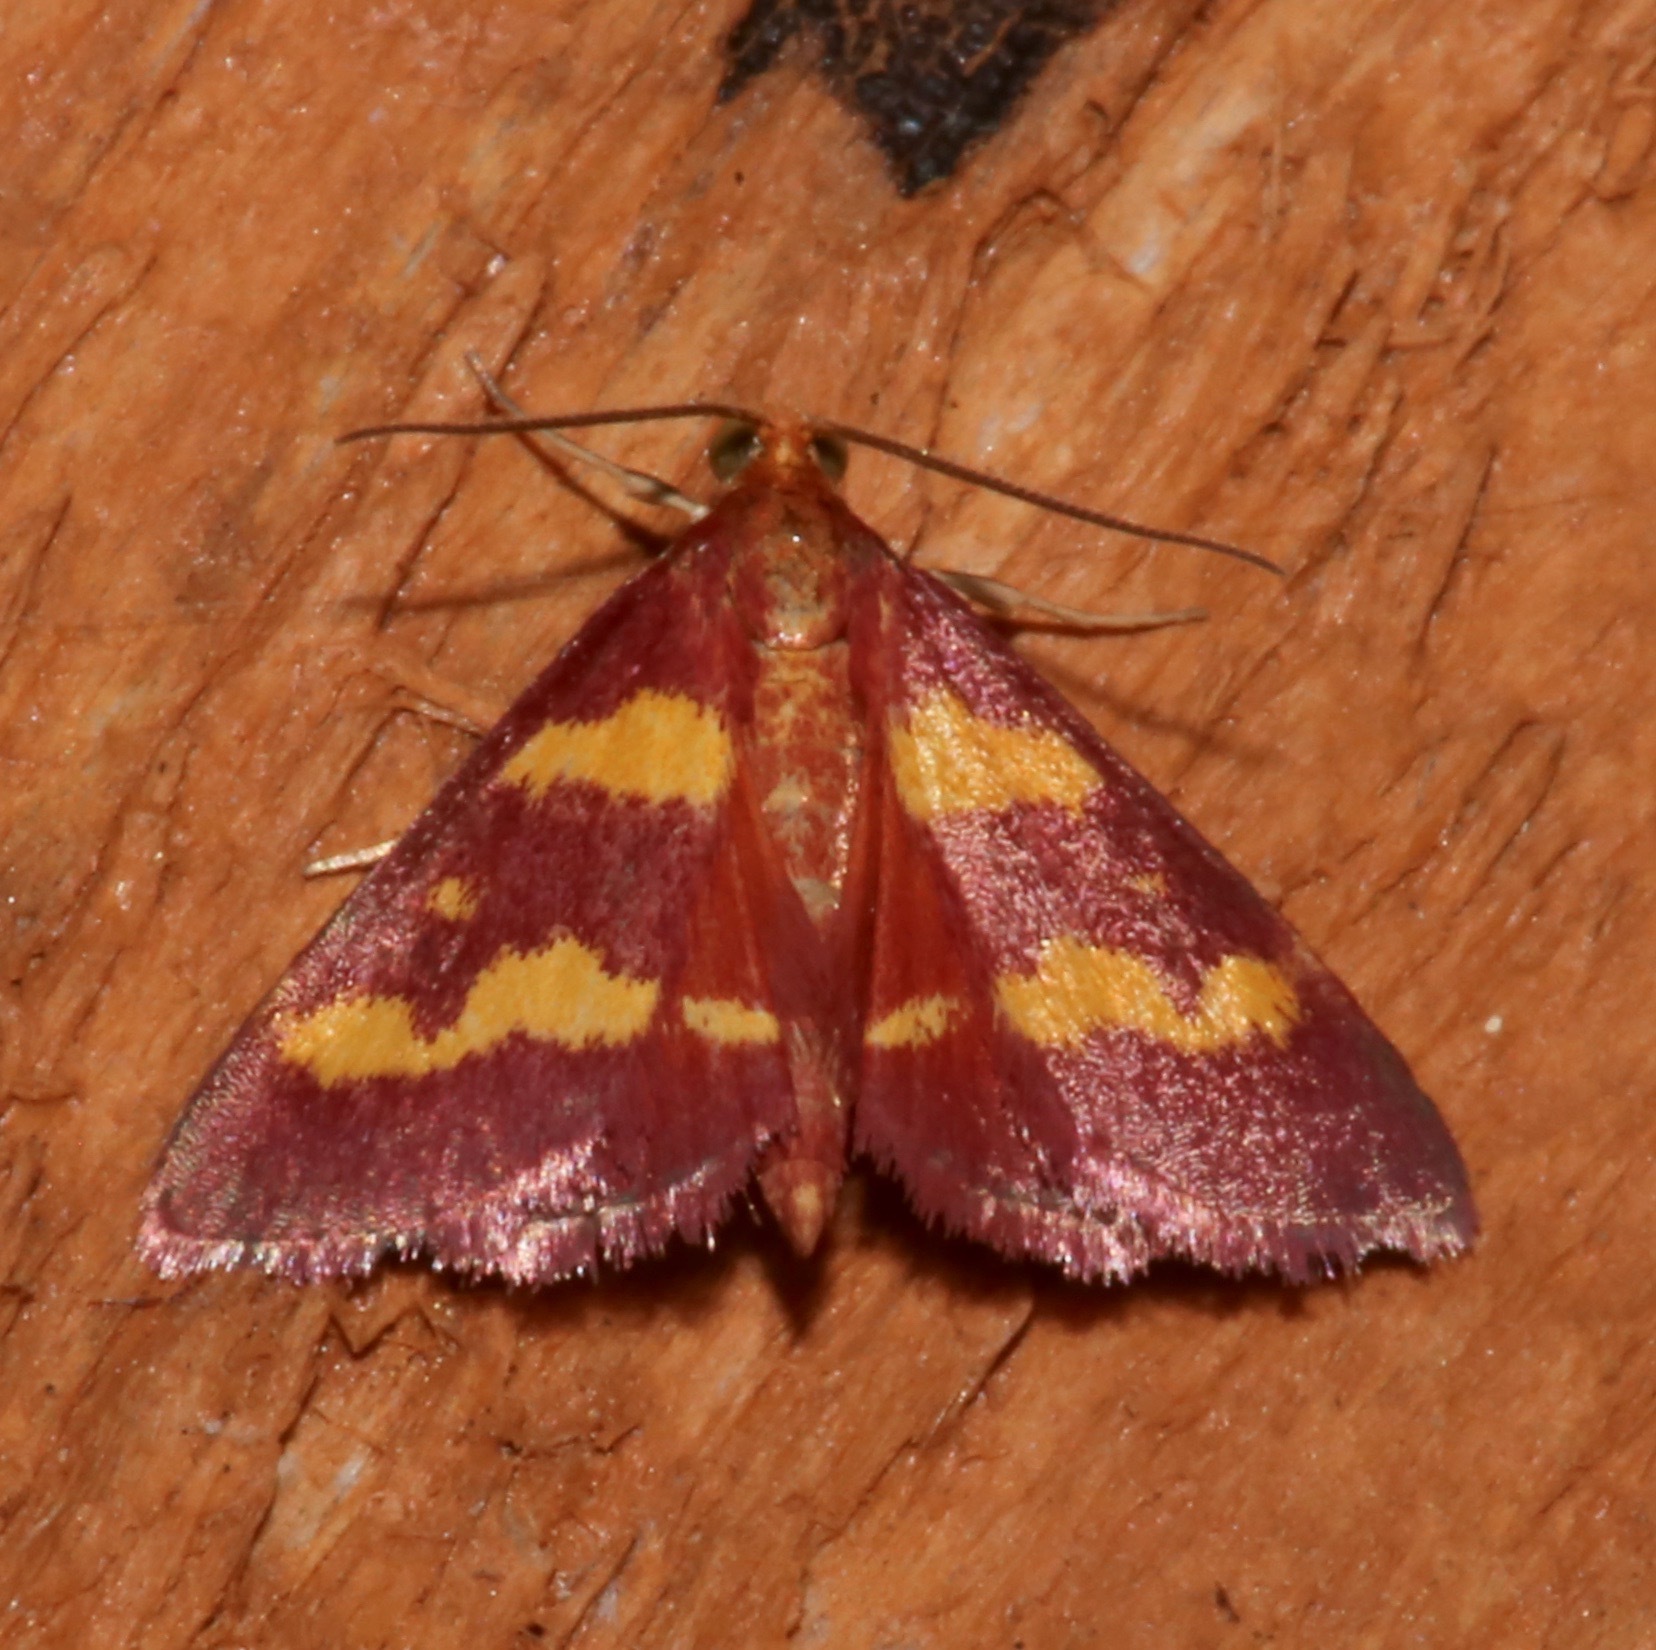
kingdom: Animalia
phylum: Arthropoda
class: Insecta
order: Lepidoptera
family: Crambidae
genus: Pyrausta
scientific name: Pyrausta tyralis
